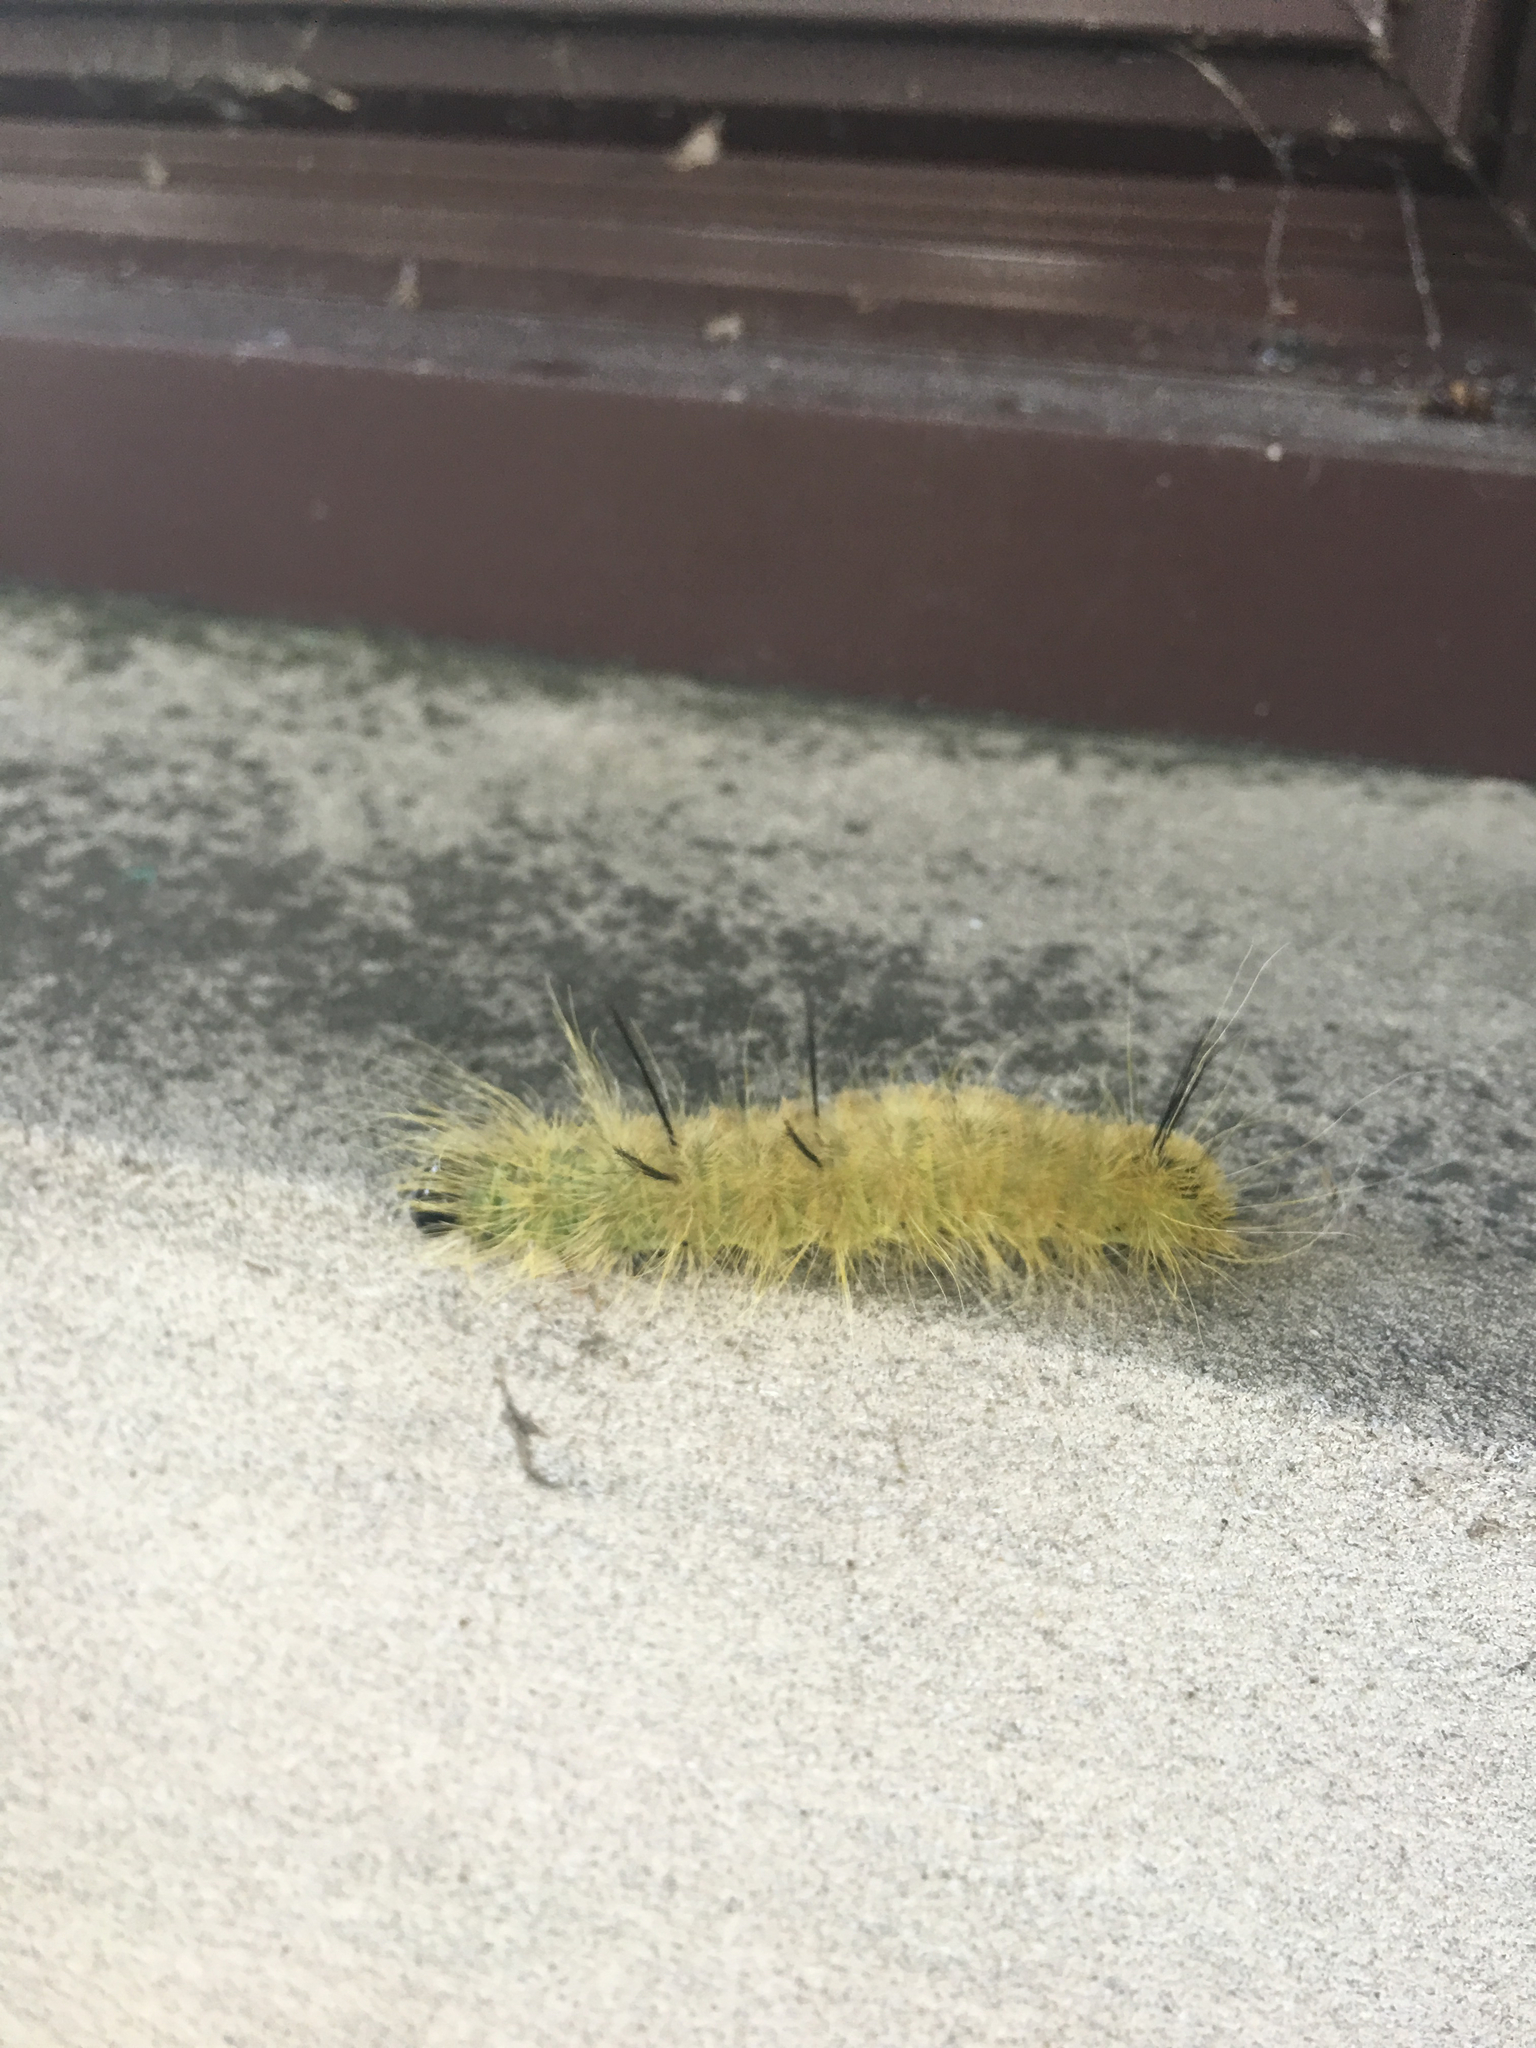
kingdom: Animalia
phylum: Arthropoda
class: Insecta
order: Lepidoptera
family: Noctuidae
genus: Acronicta
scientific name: Acronicta americana
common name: American dagger
